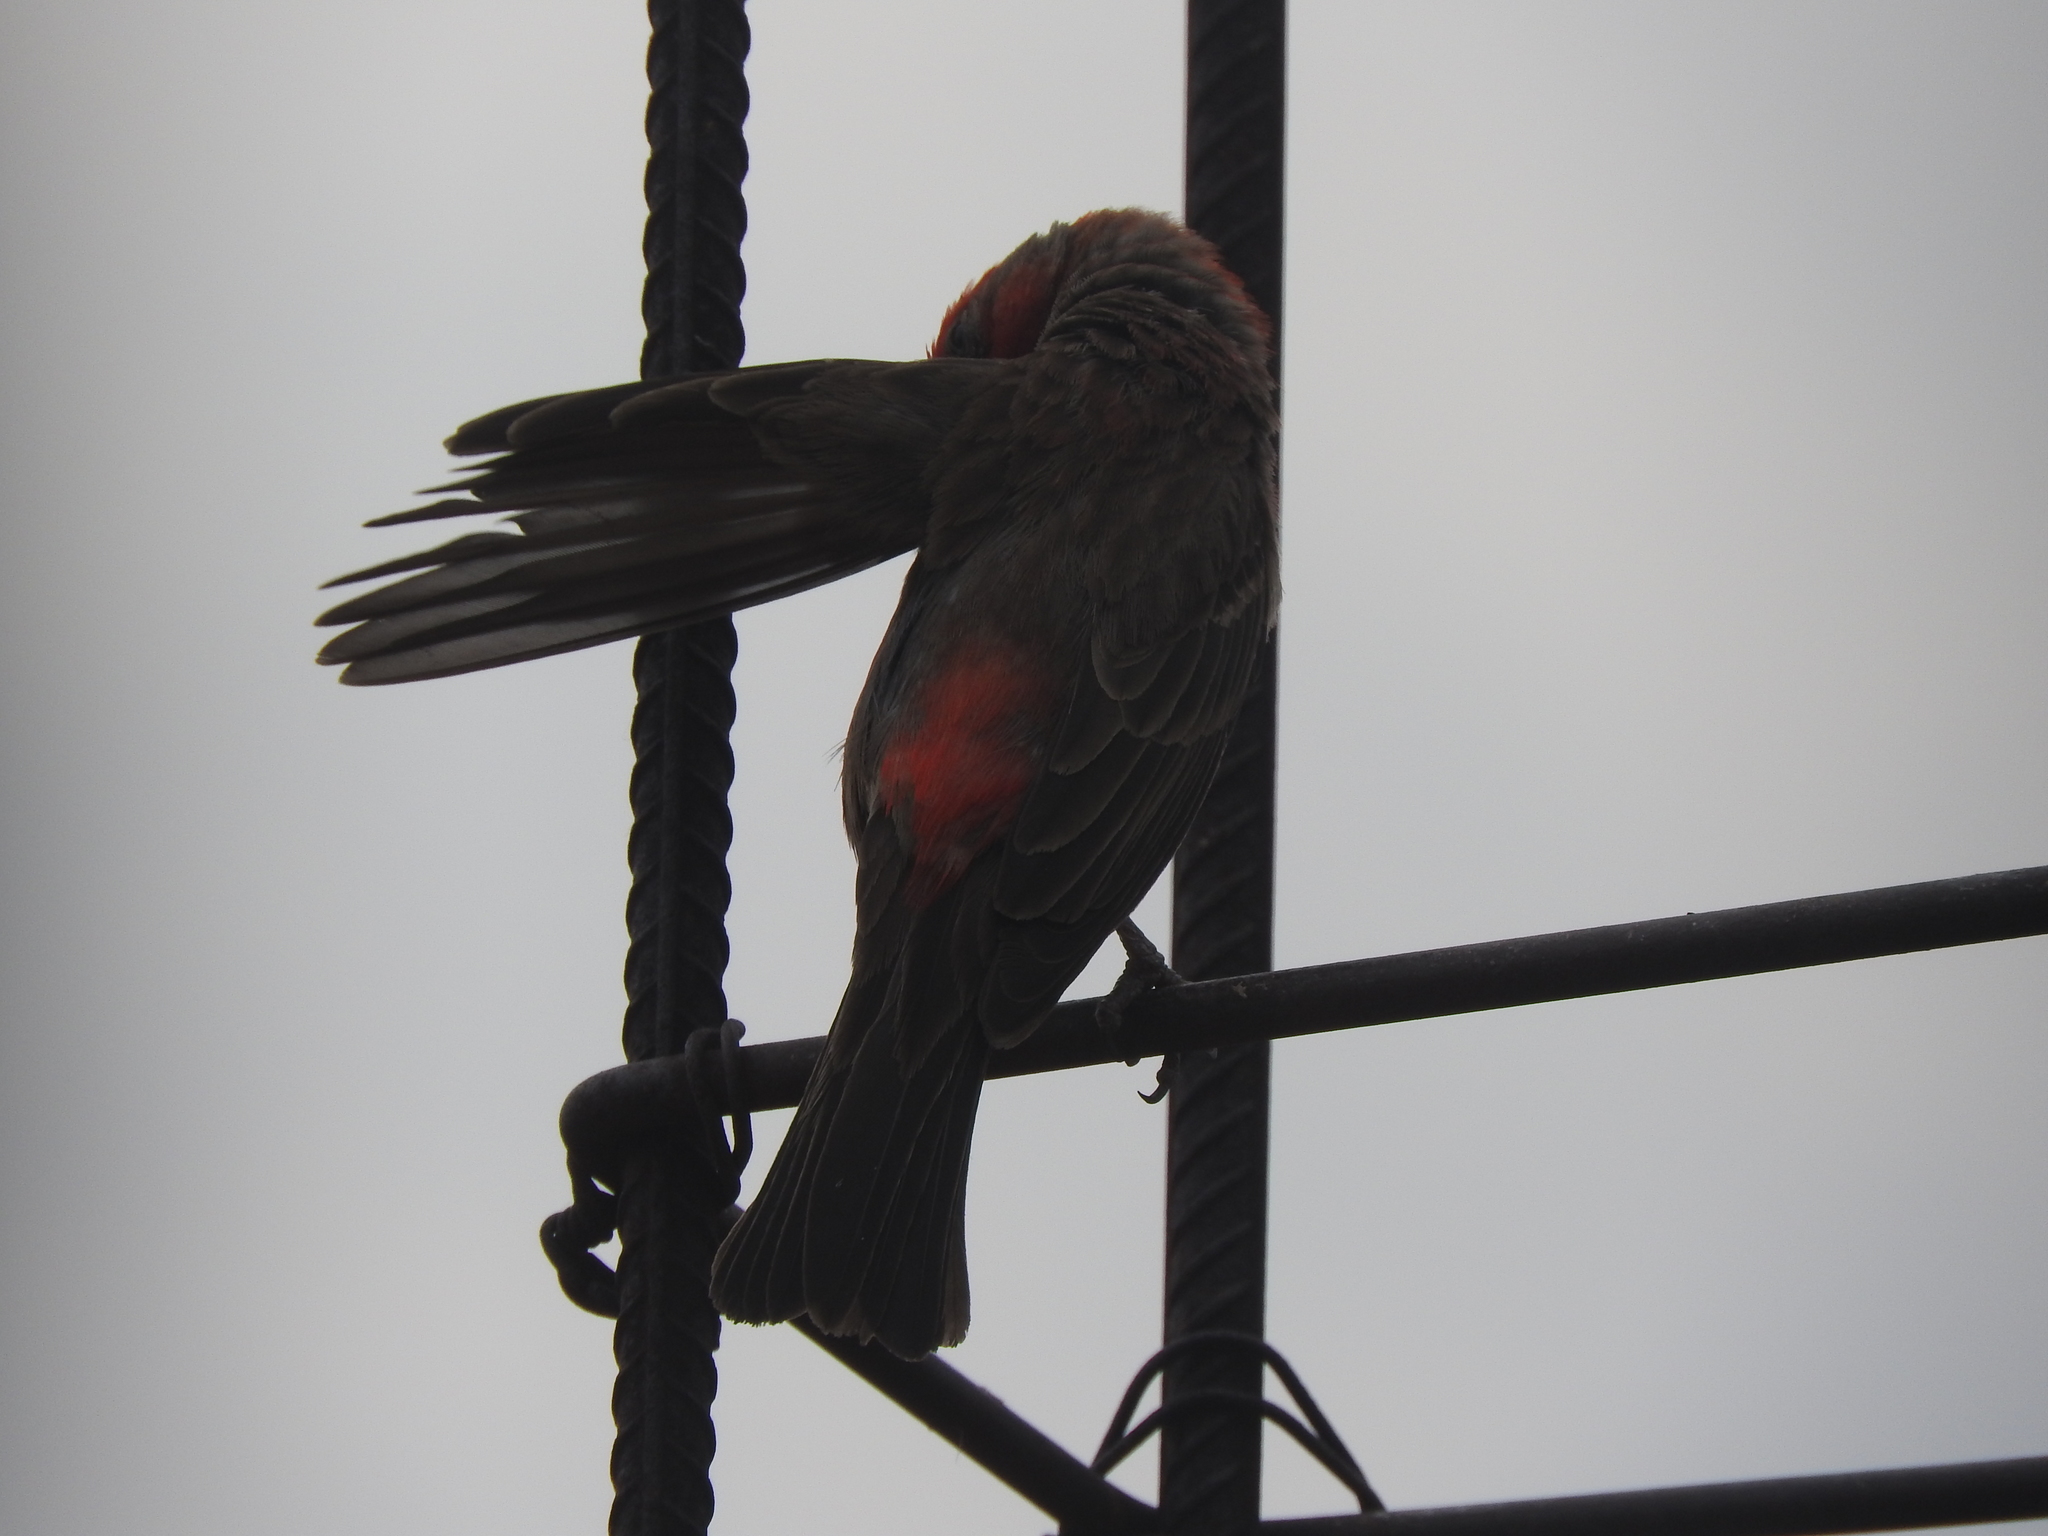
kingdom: Animalia
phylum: Chordata
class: Aves
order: Passeriformes
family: Fringillidae
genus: Haemorhous
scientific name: Haemorhous mexicanus
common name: House finch
